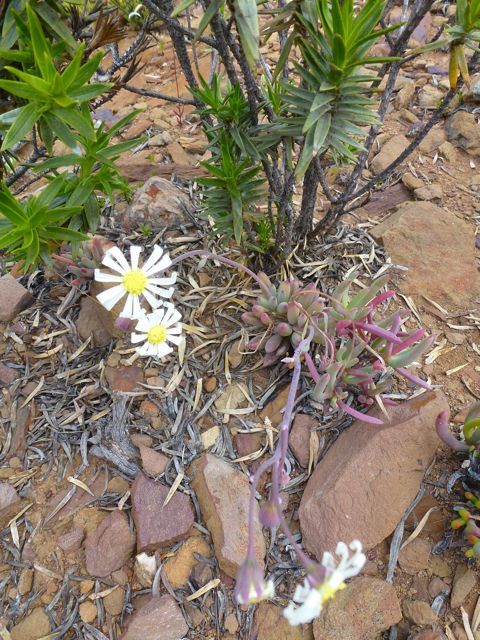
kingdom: Plantae
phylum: Tracheophyta
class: Magnoliopsida
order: Asterales
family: Asteraceae
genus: Curio
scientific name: Curio acaulis
